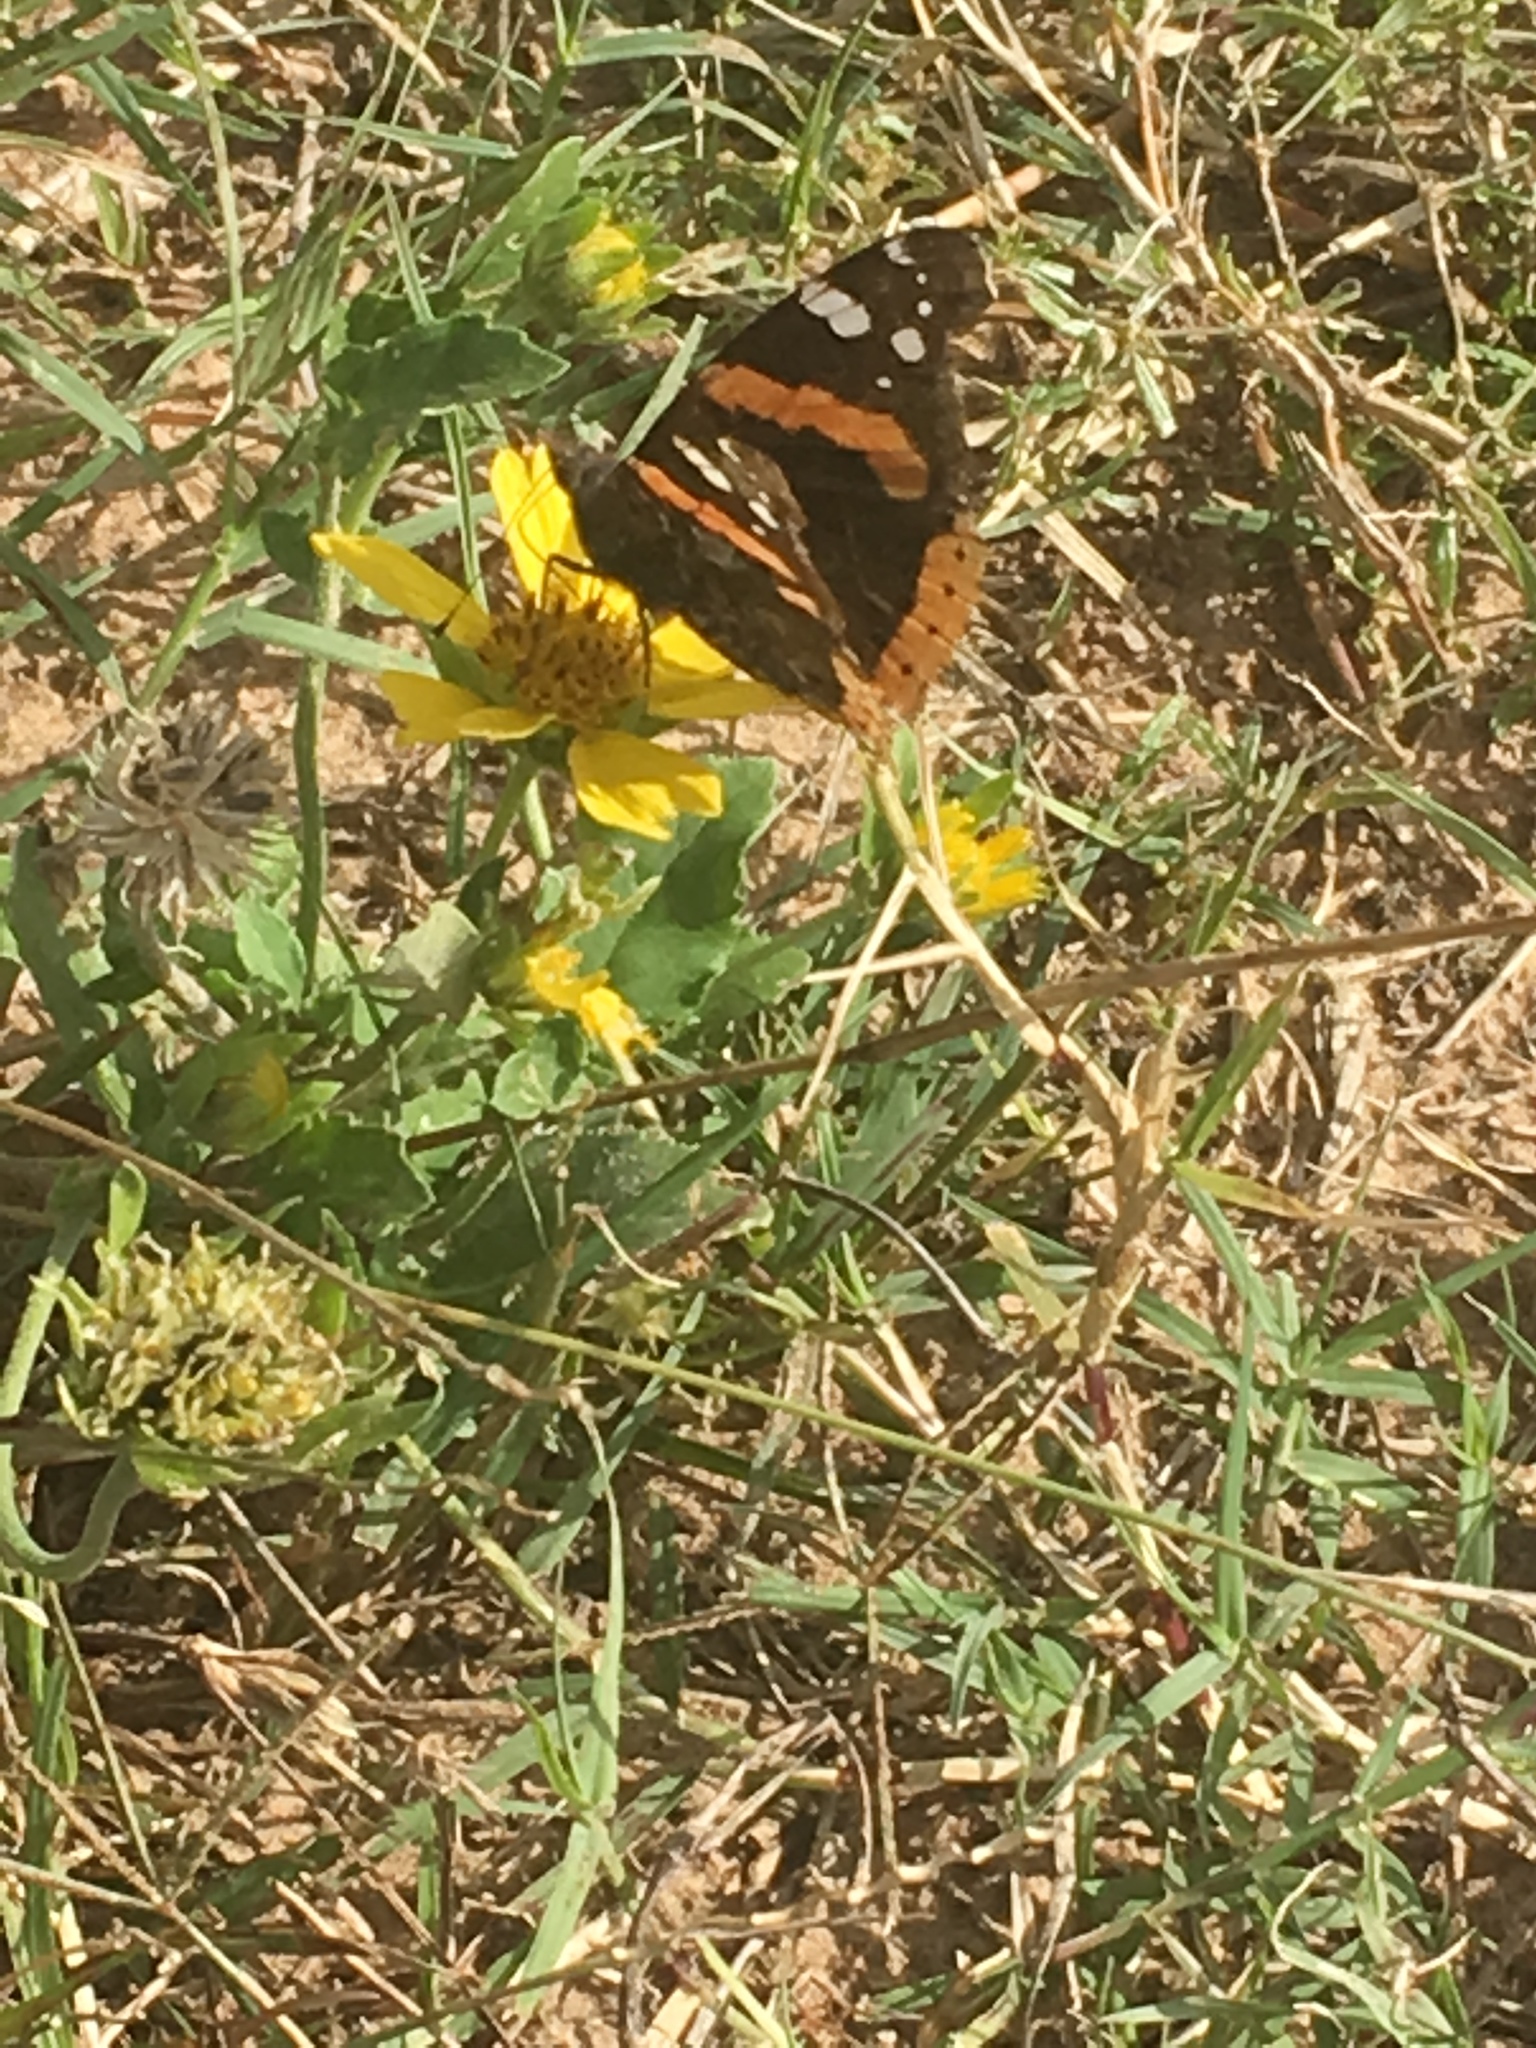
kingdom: Animalia
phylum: Arthropoda
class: Insecta
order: Lepidoptera
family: Nymphalidae
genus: Vanessa
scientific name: Vanessa atalanta
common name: Red admiral
